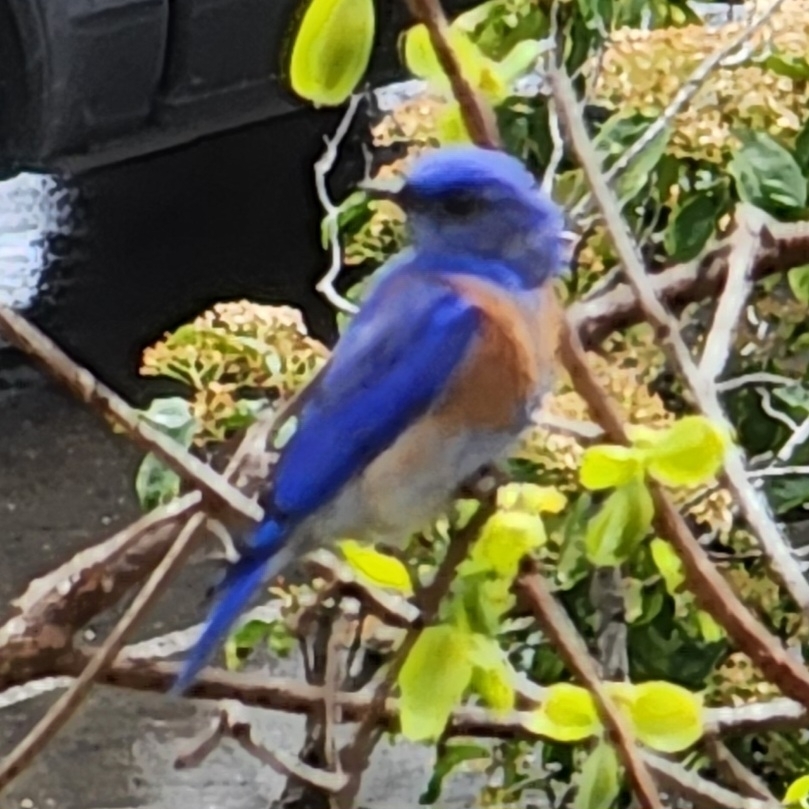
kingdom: Animalia
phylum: Chordata
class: Aves
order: Passeriformes
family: Turdidae
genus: Sialia
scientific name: Sialia mexicana
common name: Western bluebird
